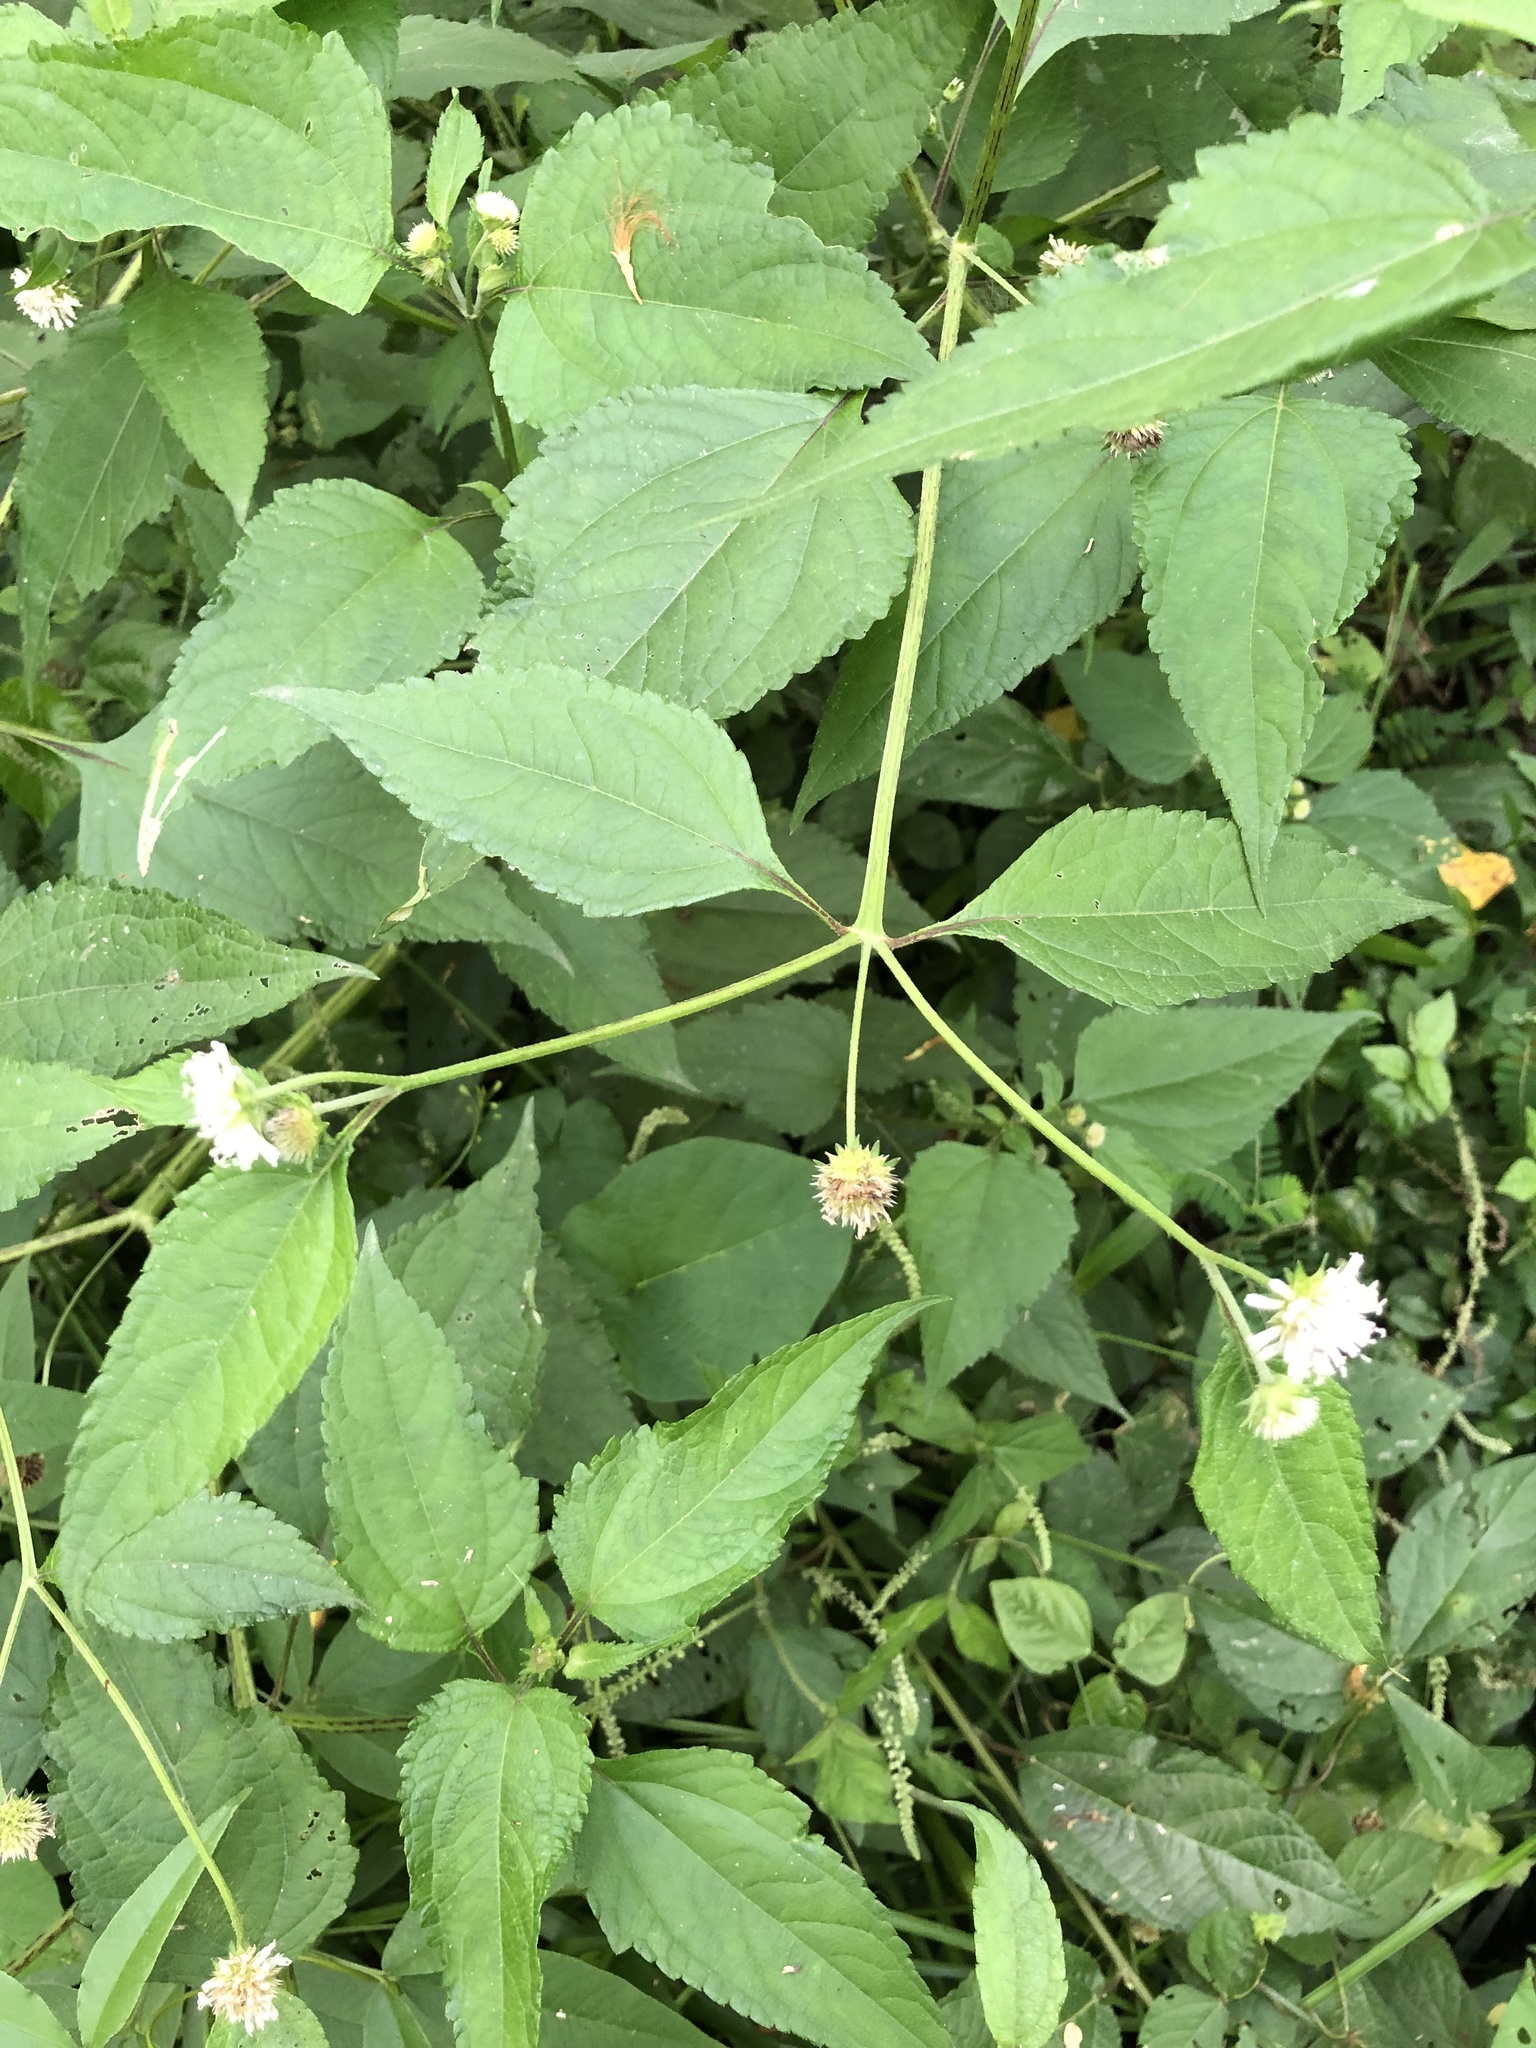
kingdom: Plantae
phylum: Tracheophyta
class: Magnoliopsida
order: Asterales
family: Asteraceae
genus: Melanthera
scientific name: Melanthera nivea
